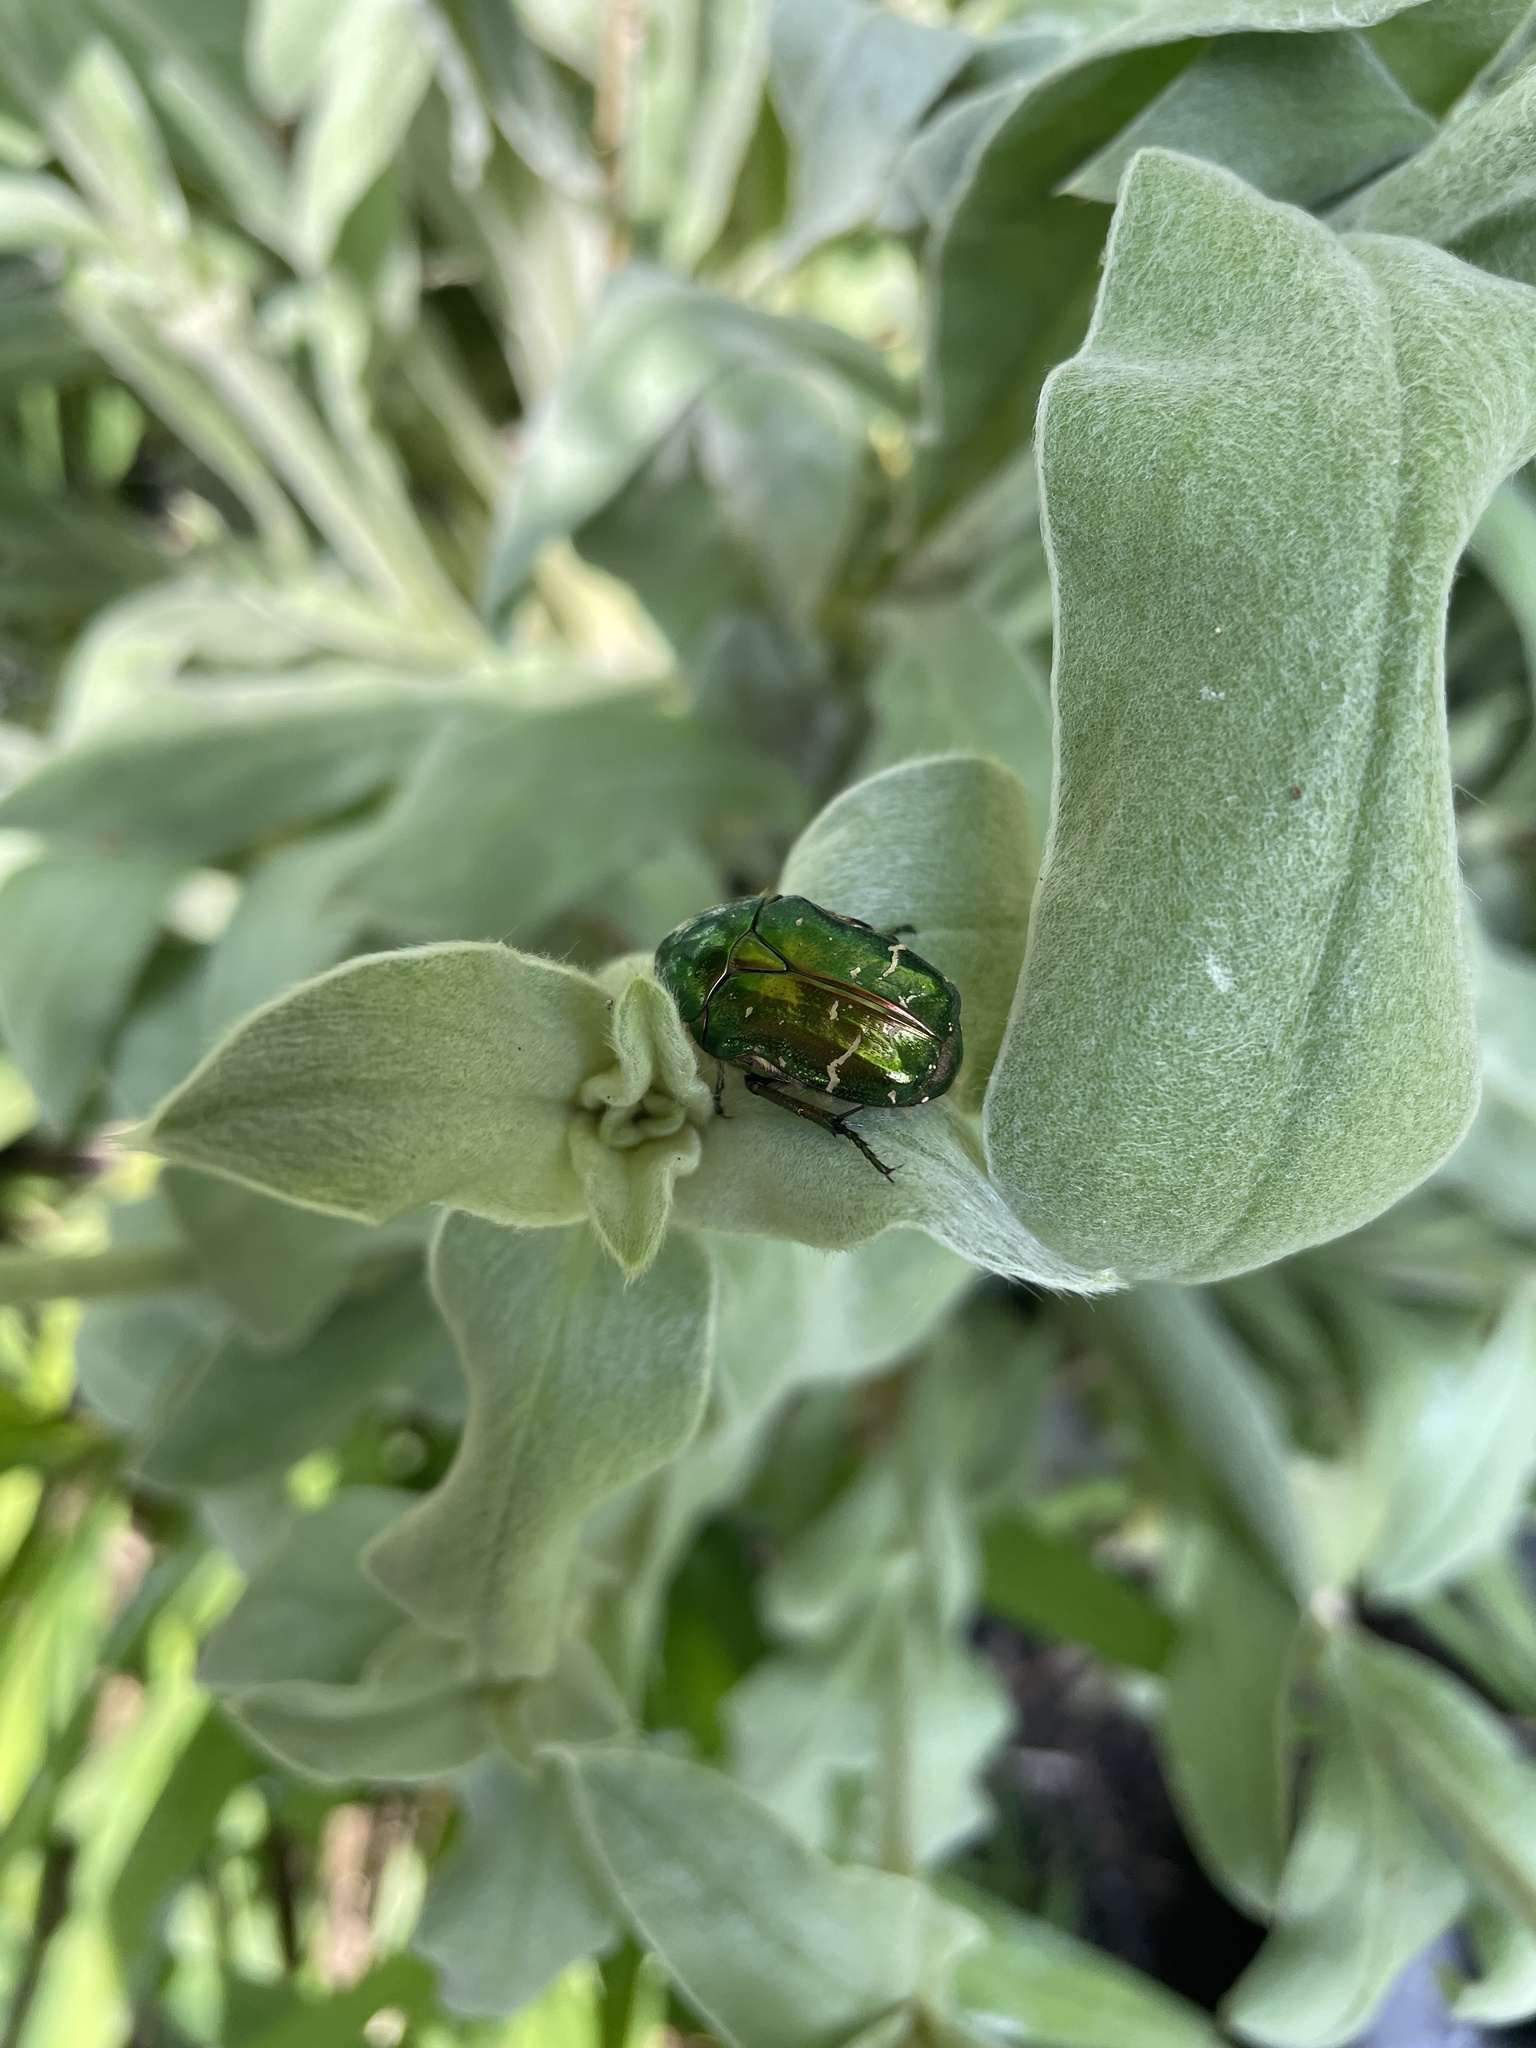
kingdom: Animalia
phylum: Arthropoda
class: Insecta
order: Coleoptera
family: Scarabaeidae
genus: Cetonia
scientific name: Cetonia aurata
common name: Rose chafer
